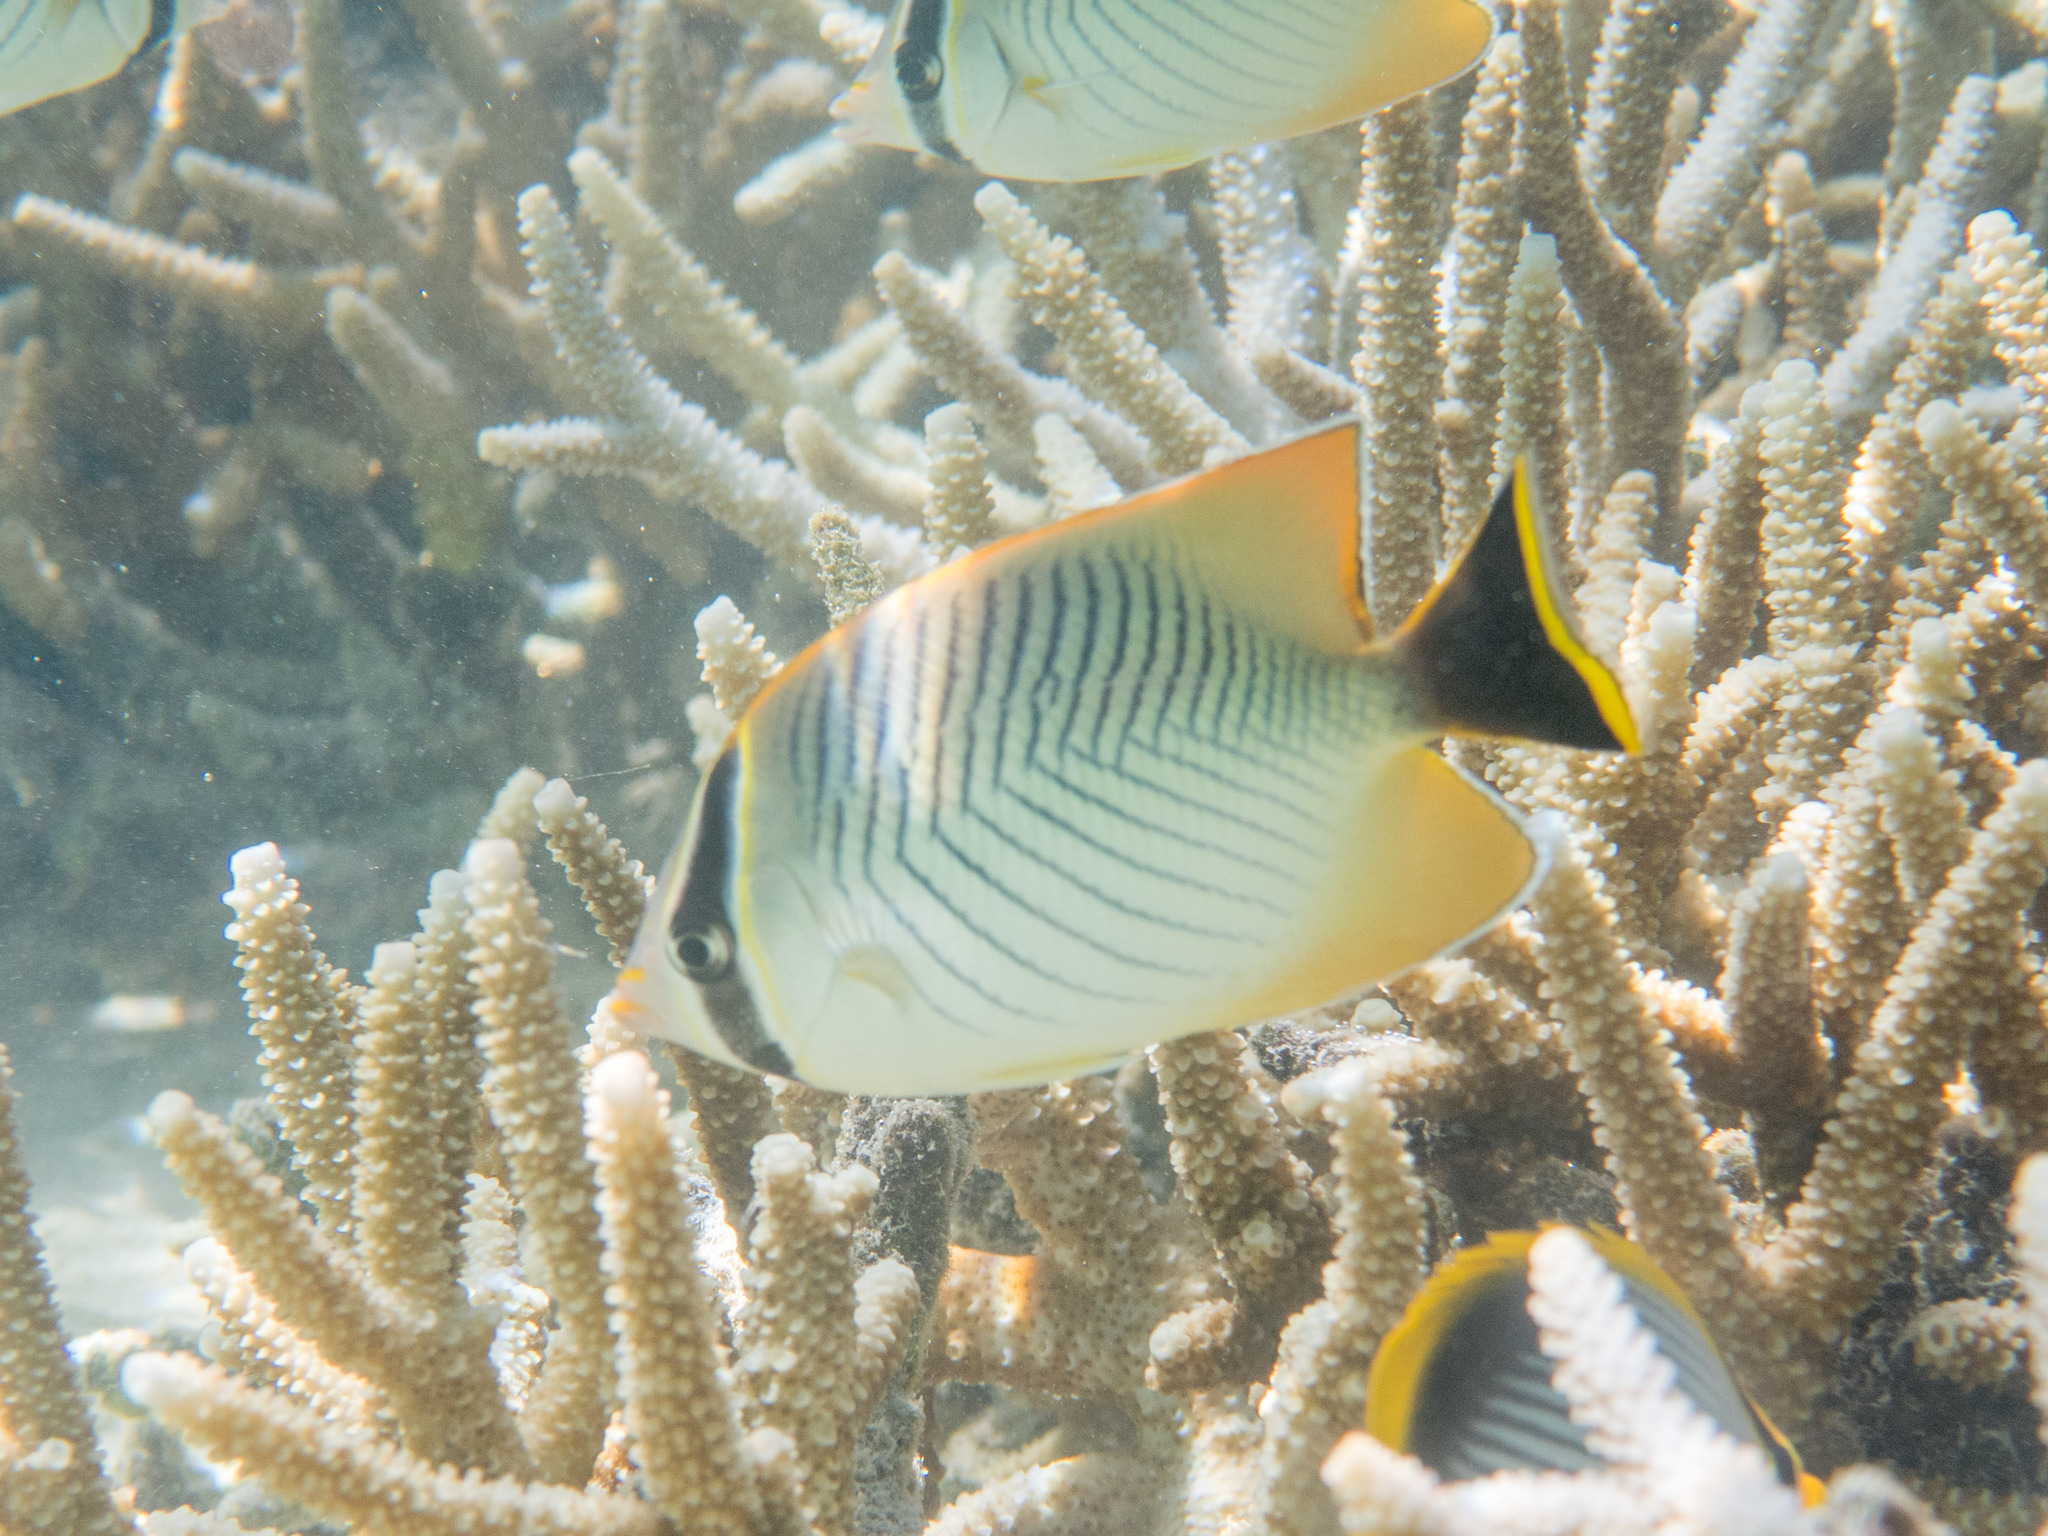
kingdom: Animalia
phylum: Chordata
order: Perciformes
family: Chaetodontidae
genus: Chaetodon
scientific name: Chaetodon trifascialis
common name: Chevroned butterflyfish
